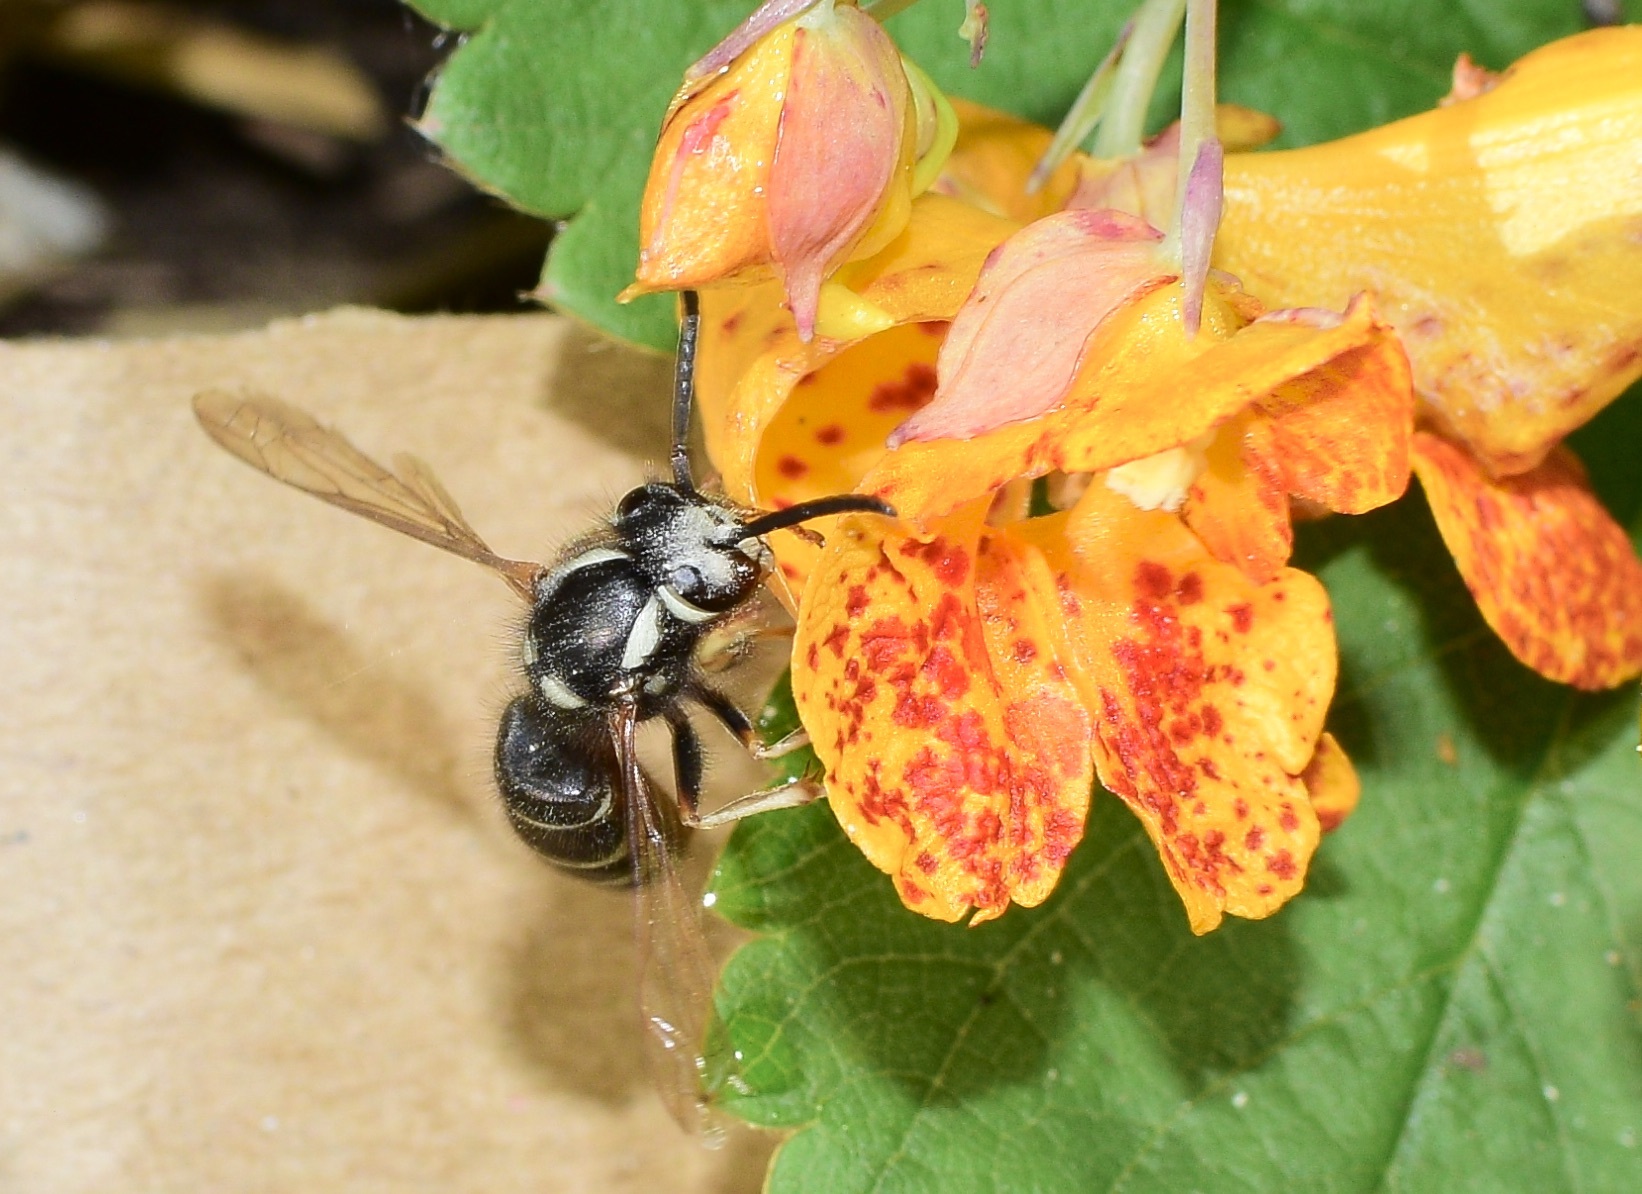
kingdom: Animalia
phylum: Arthropoda
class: Insecta
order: Hymenoptera
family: Vespidae
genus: Vespula
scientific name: Vespula consobrina
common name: Blackjacket
